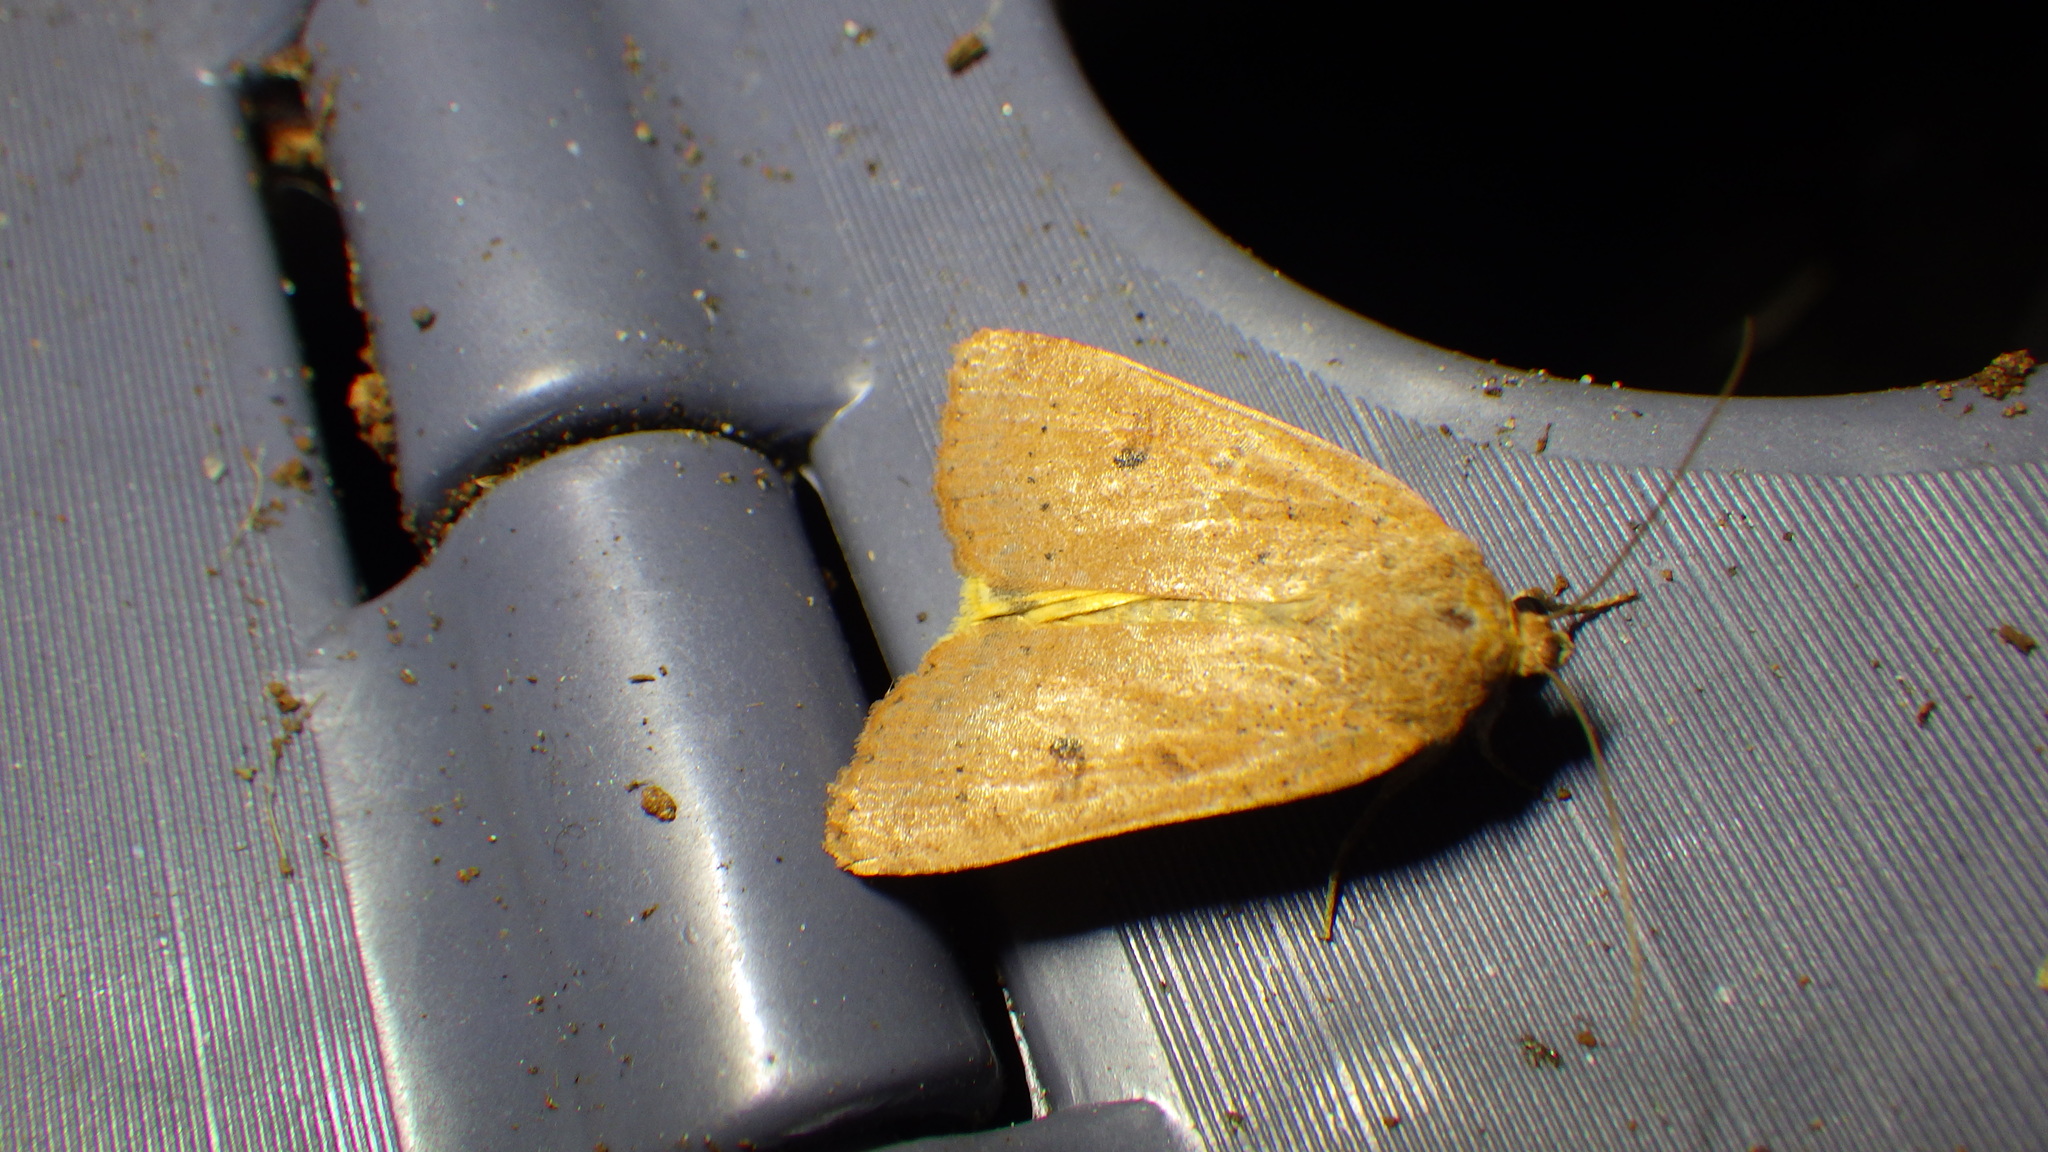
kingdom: Animalia
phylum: Arthropoda
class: Insecta
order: Lepidoptera
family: Noctuidae
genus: Noctua
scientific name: Noctua comes
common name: Lesser yellow underwing
